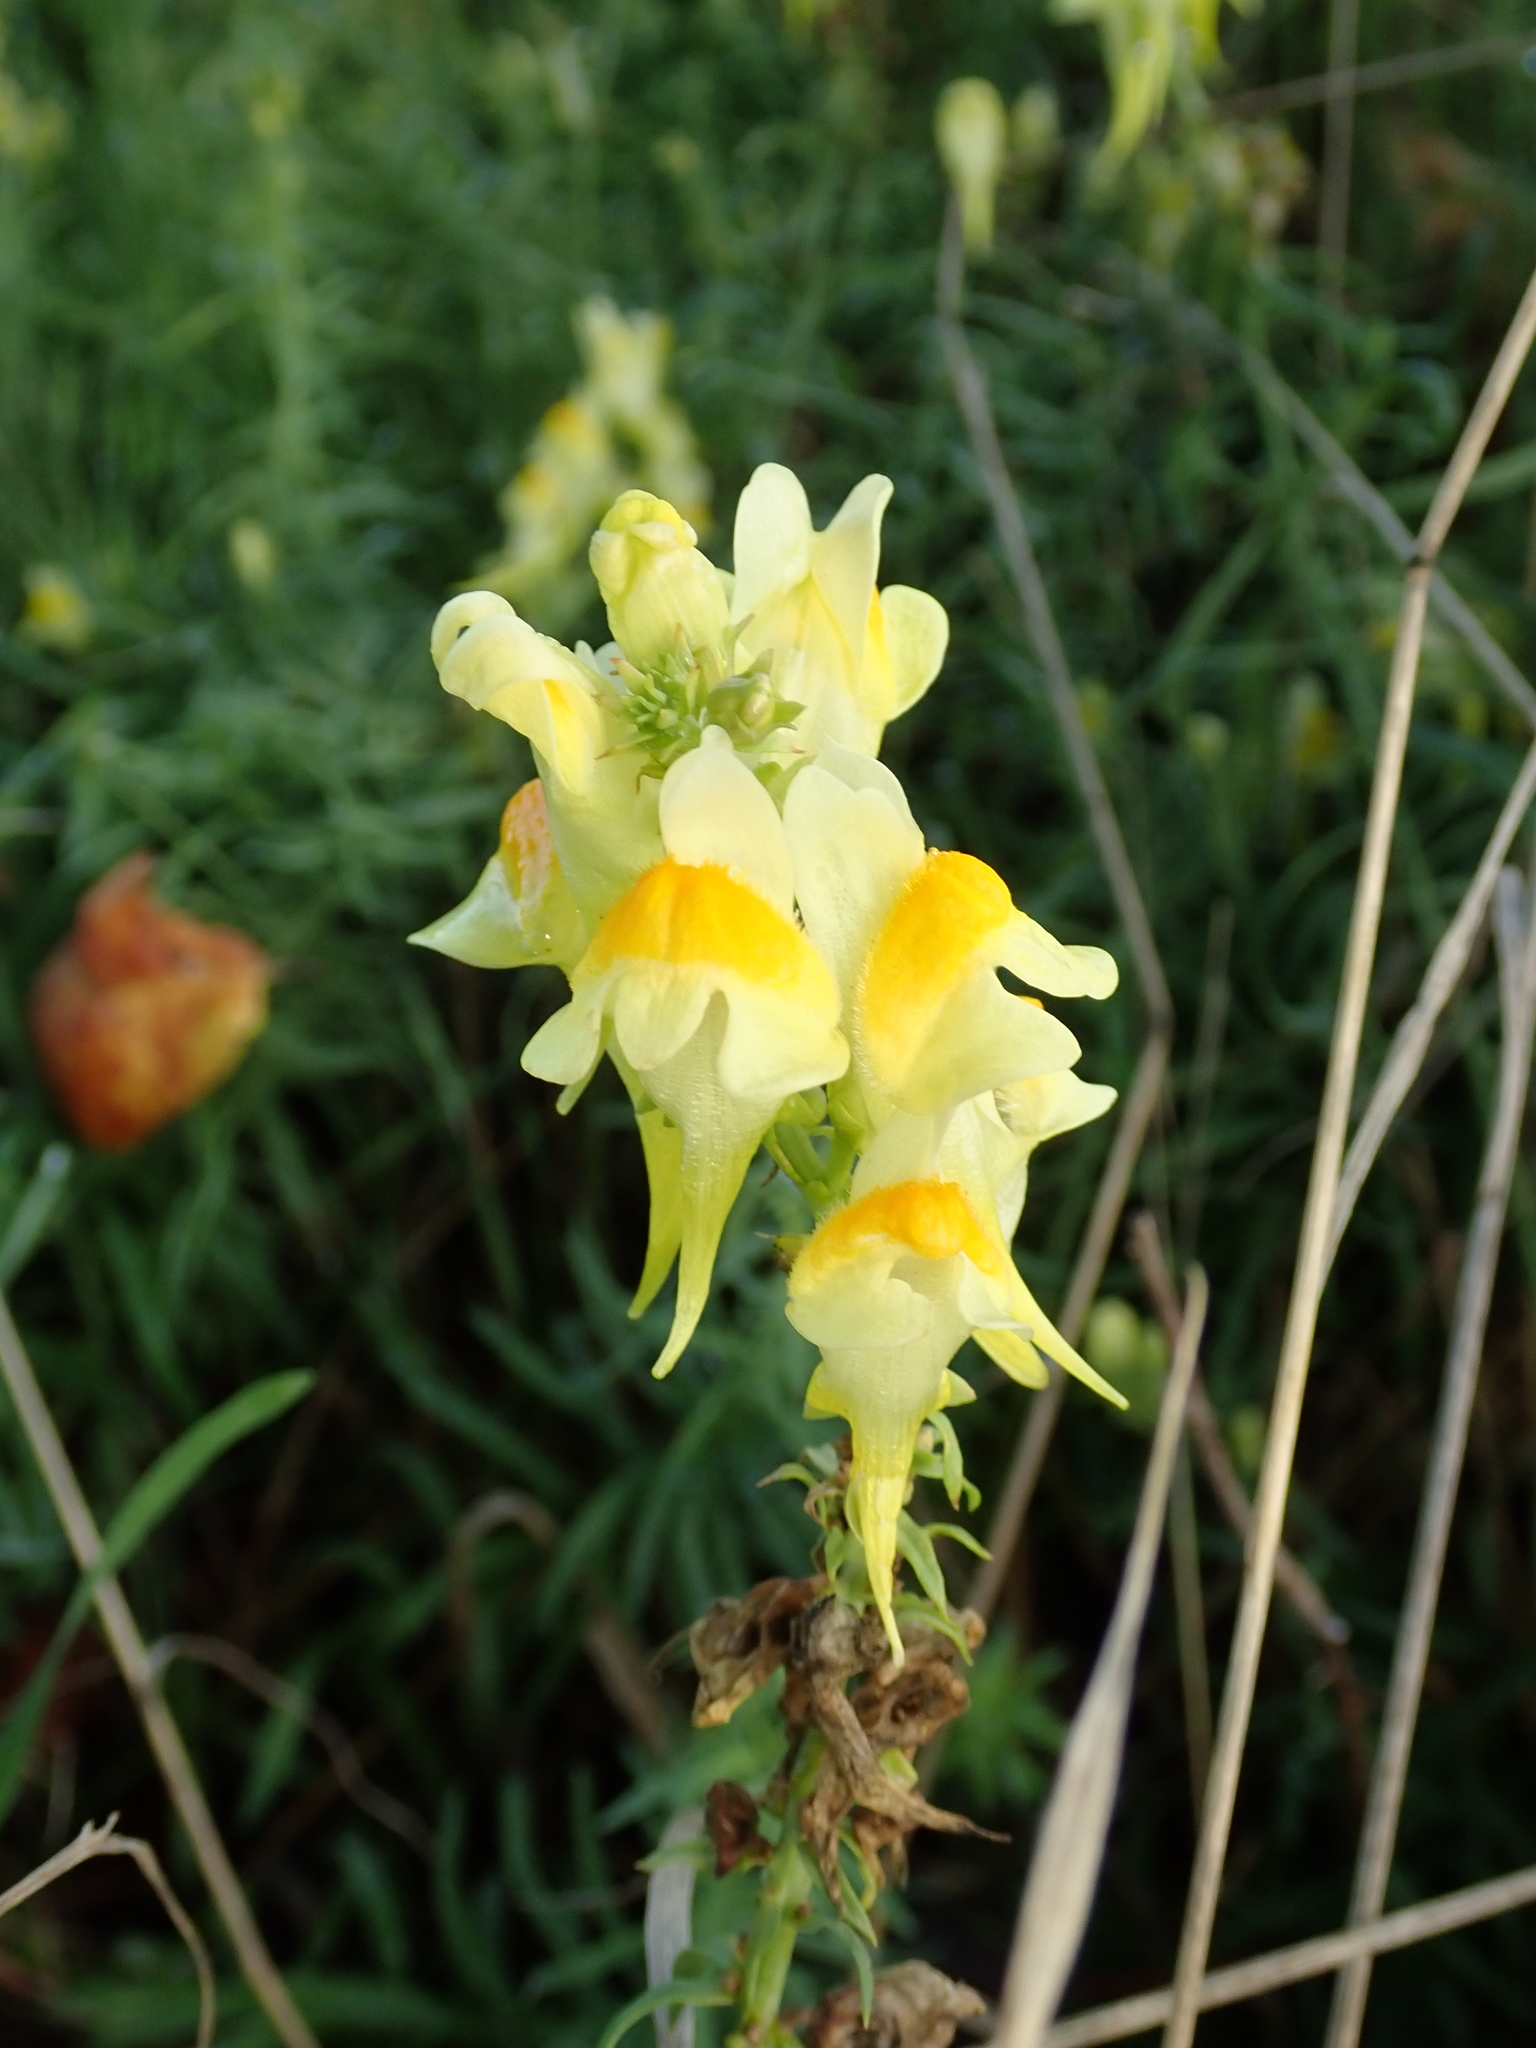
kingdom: Plantae
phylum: Tracheophyta
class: Magnoliopsida
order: Lamiales
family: Plantaginaceae
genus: Linaria
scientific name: Linaria vulgaris
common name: Butter and eggs
